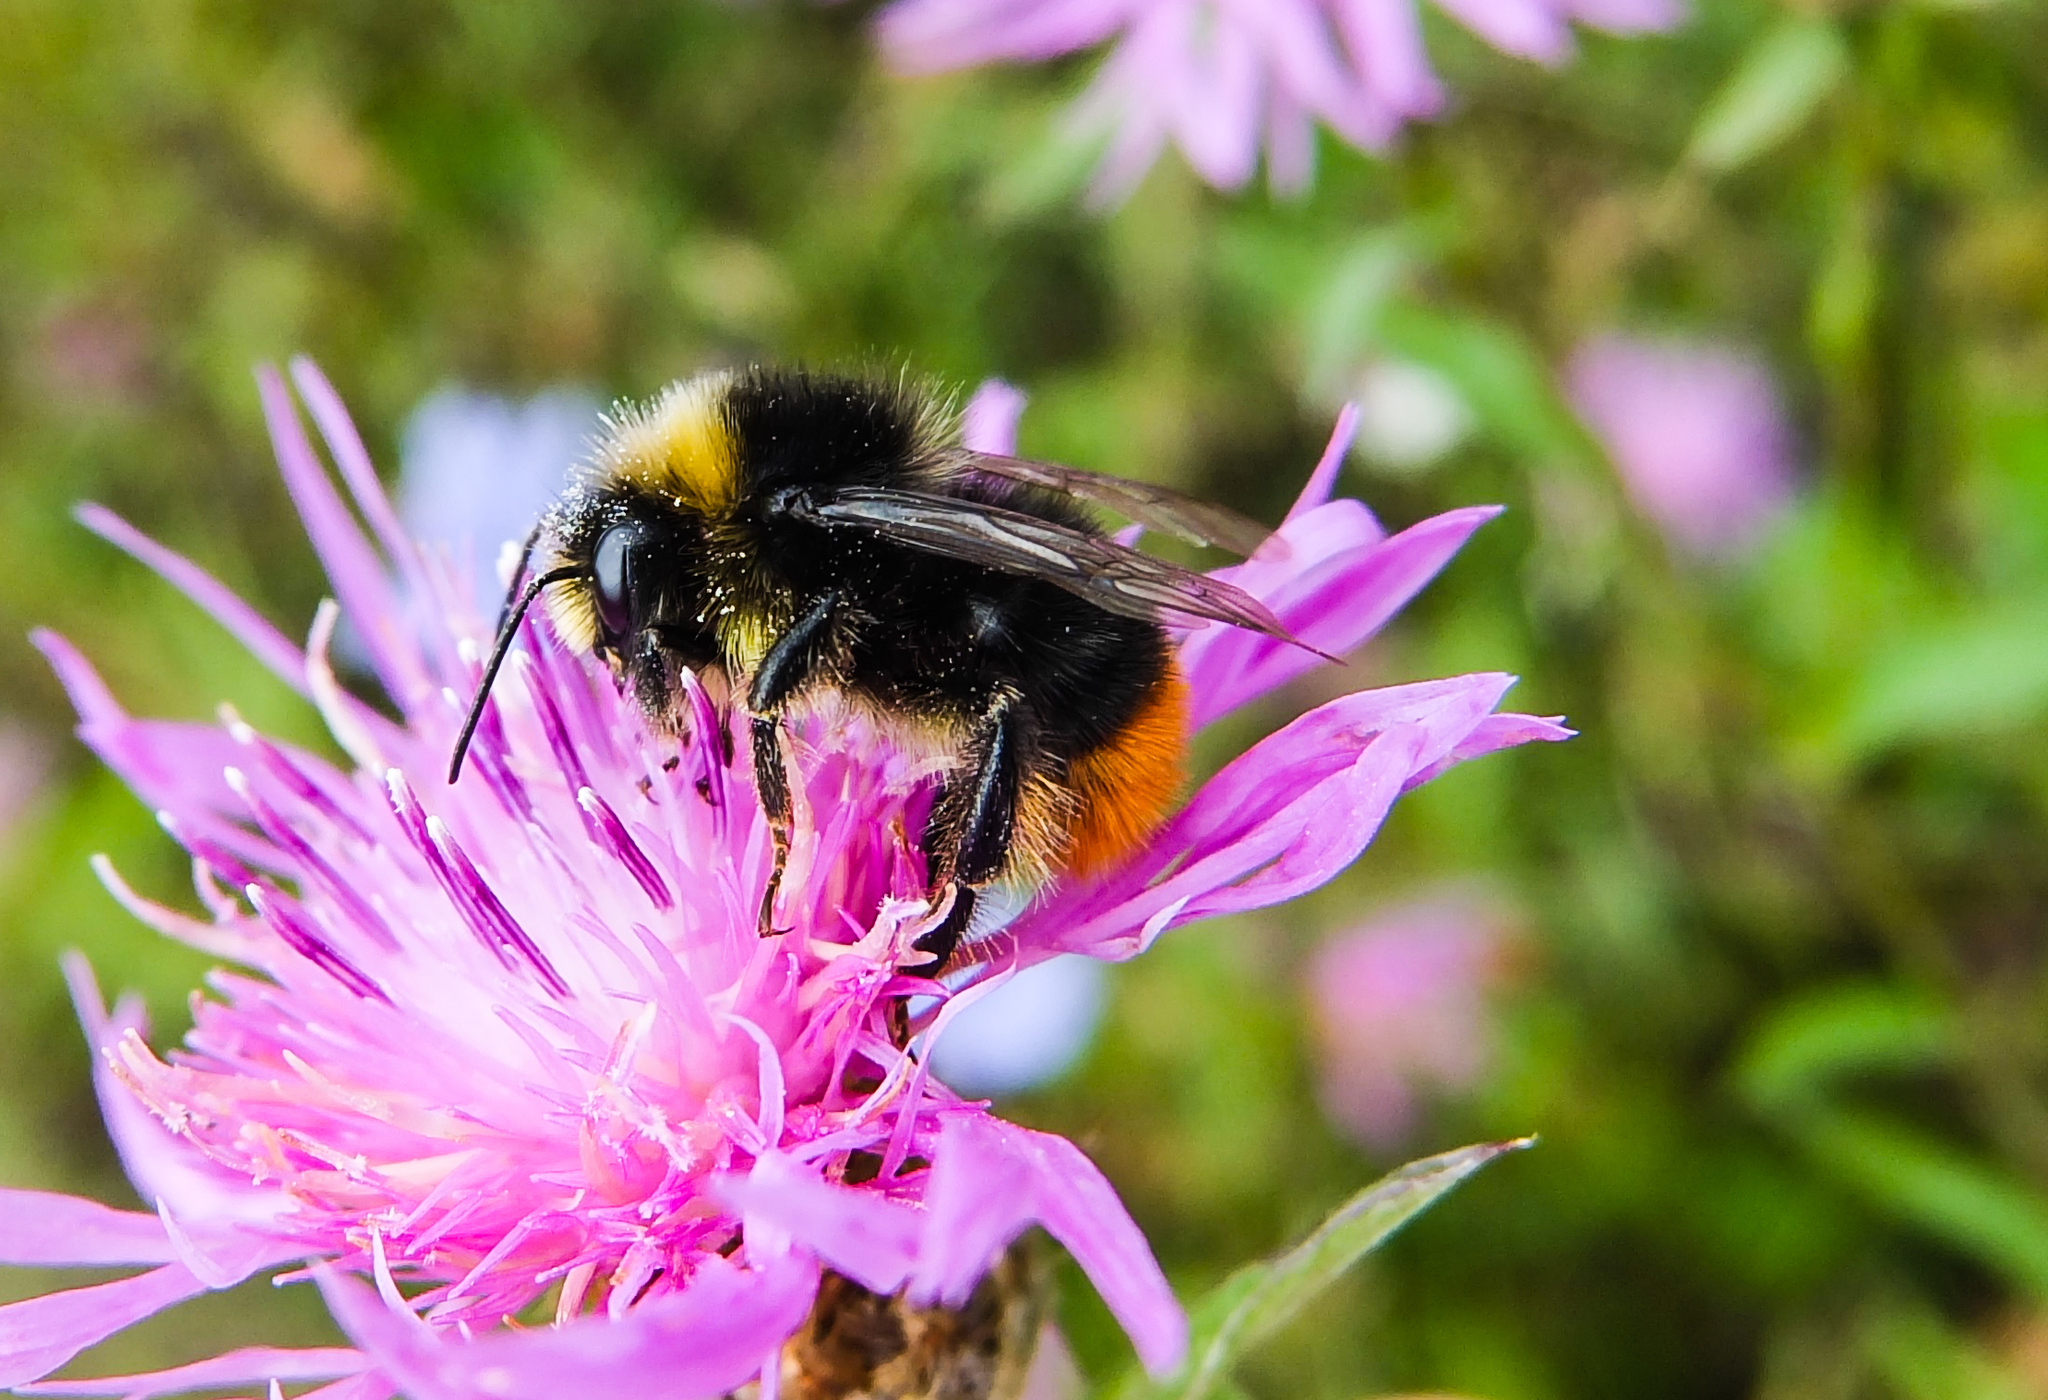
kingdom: Animalia
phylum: Arthropoda
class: Insecta
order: Hymenoptera
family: Apidae
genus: Bombus
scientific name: Bombus lapidarius
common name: Large red-tailed humble-bee
